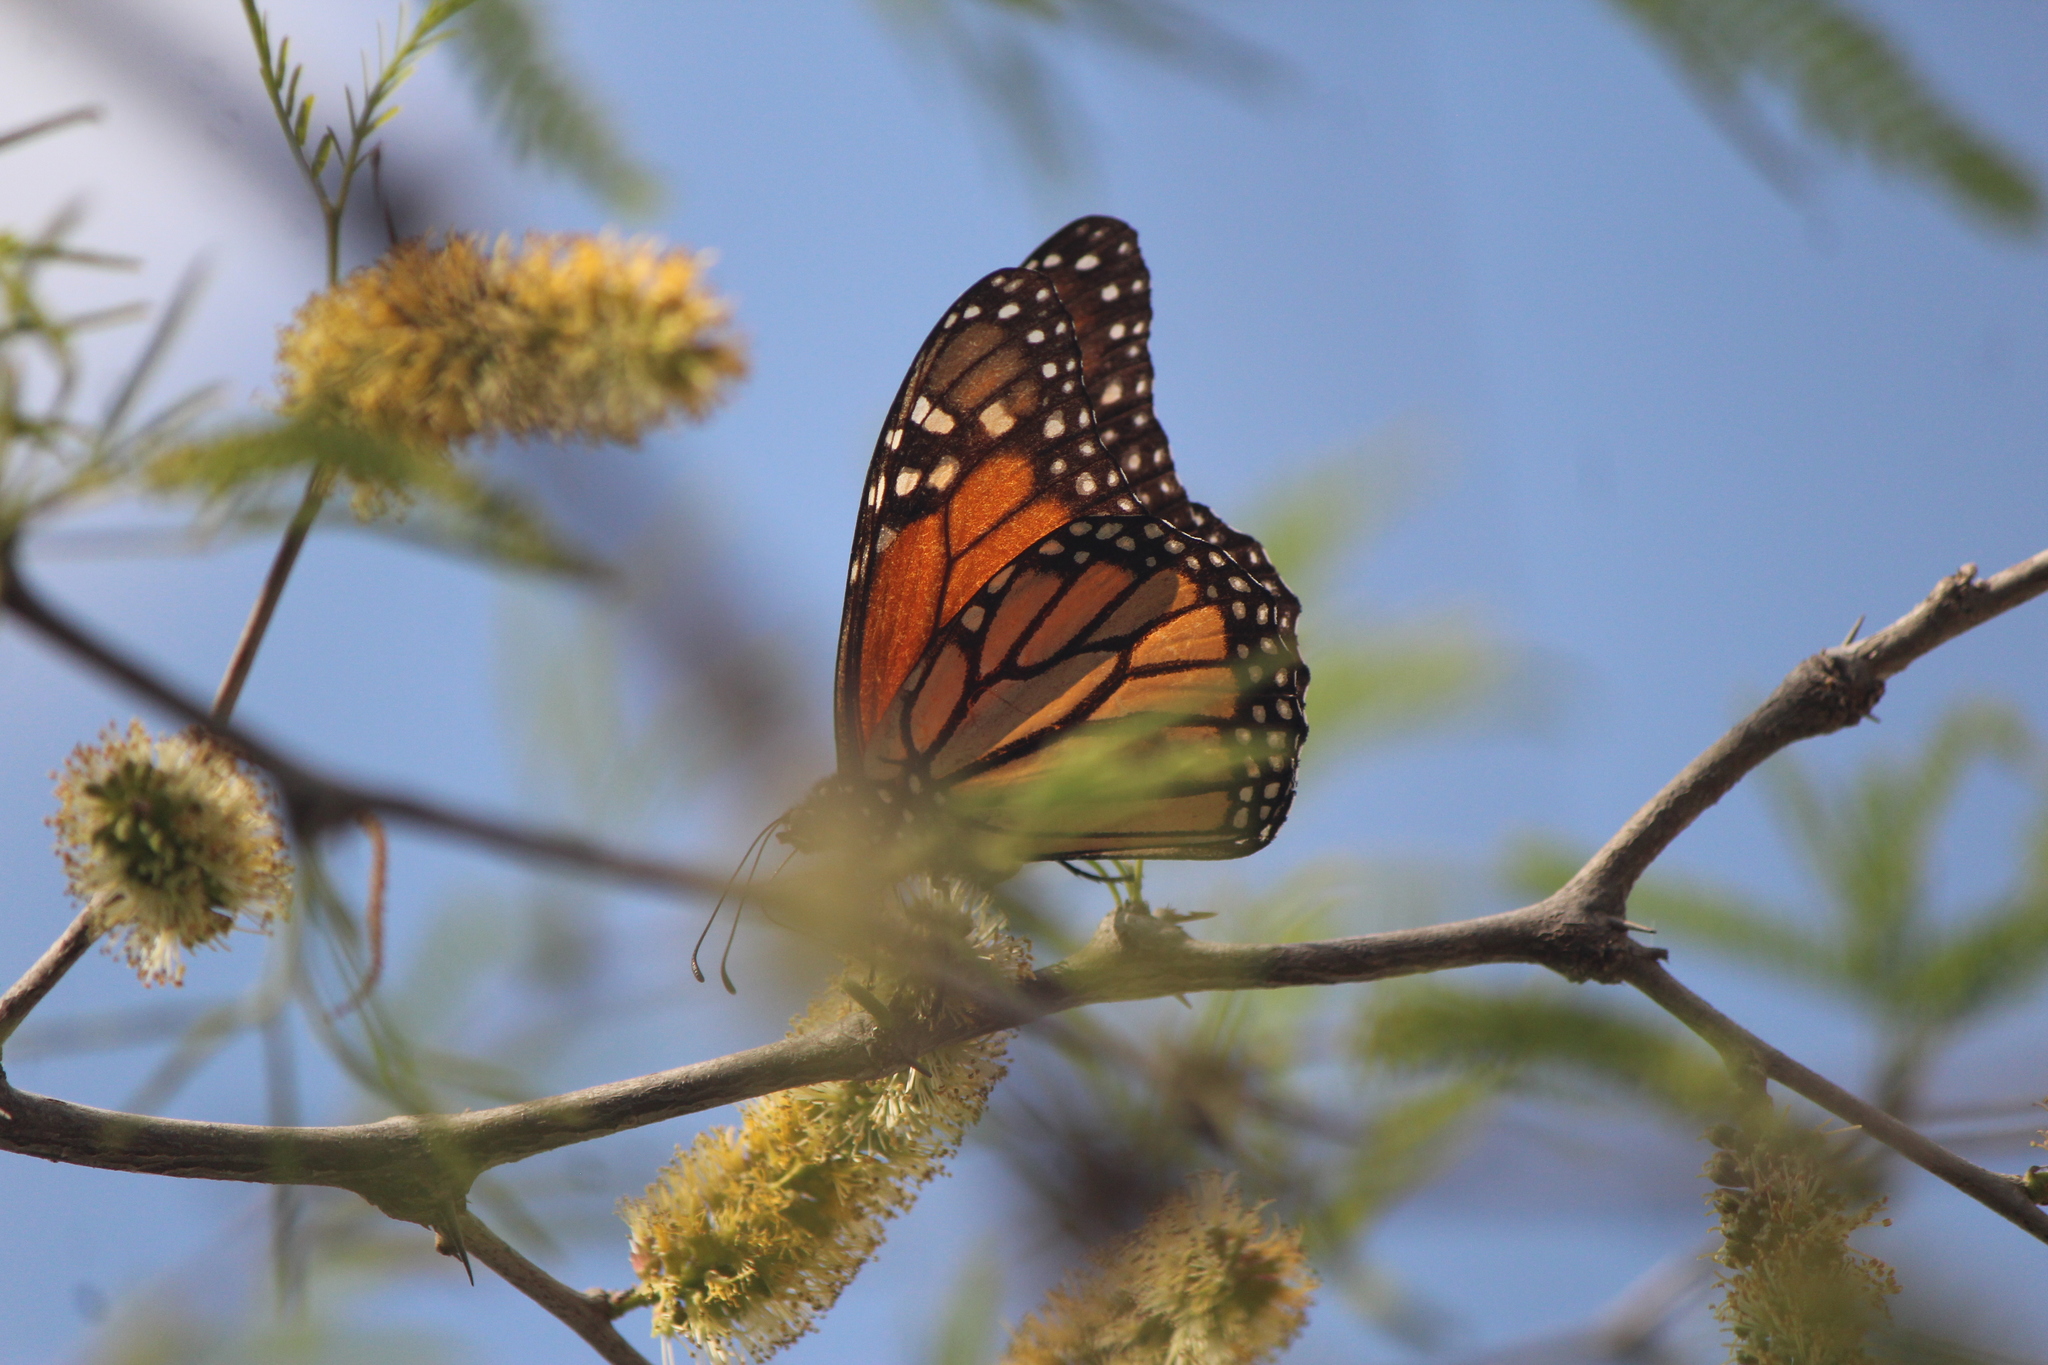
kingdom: Animalia
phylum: Arthropoda
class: Insecta
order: Lepidoptera
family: Nymphalidae
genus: Danaus
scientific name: Danaus plexippus
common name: Monarch
